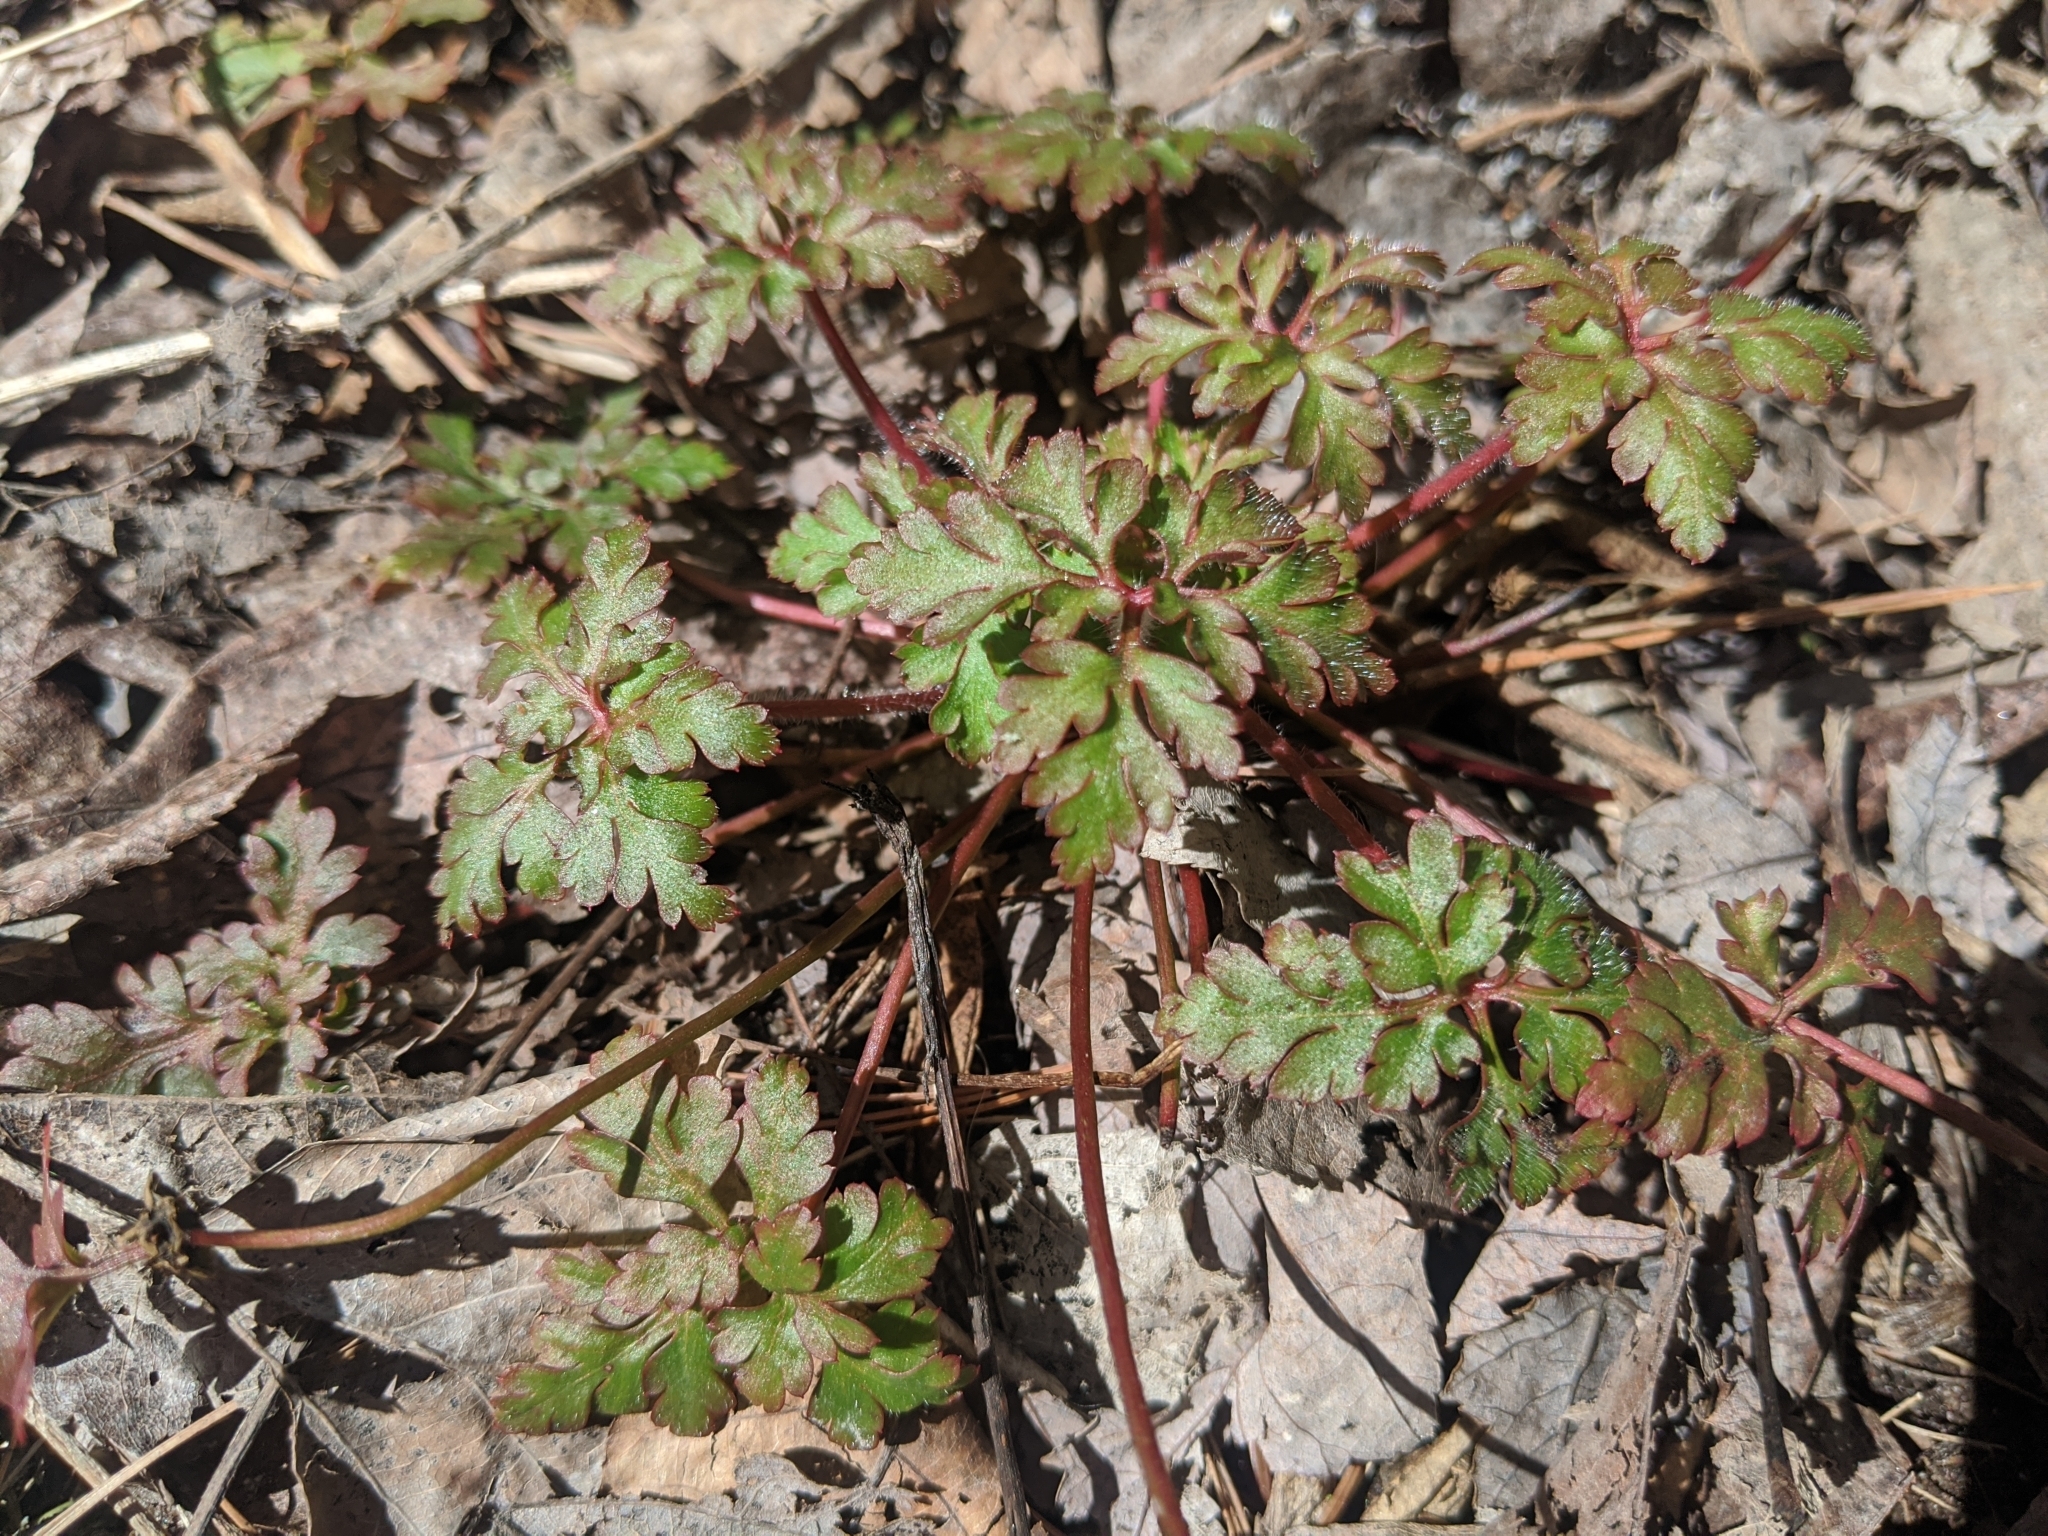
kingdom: Plantae
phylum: Tracheophyta
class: Magnoliopsida
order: Geraniales
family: Geraniaceae
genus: Geranium
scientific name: Geranium robertianum
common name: Herb-robert
